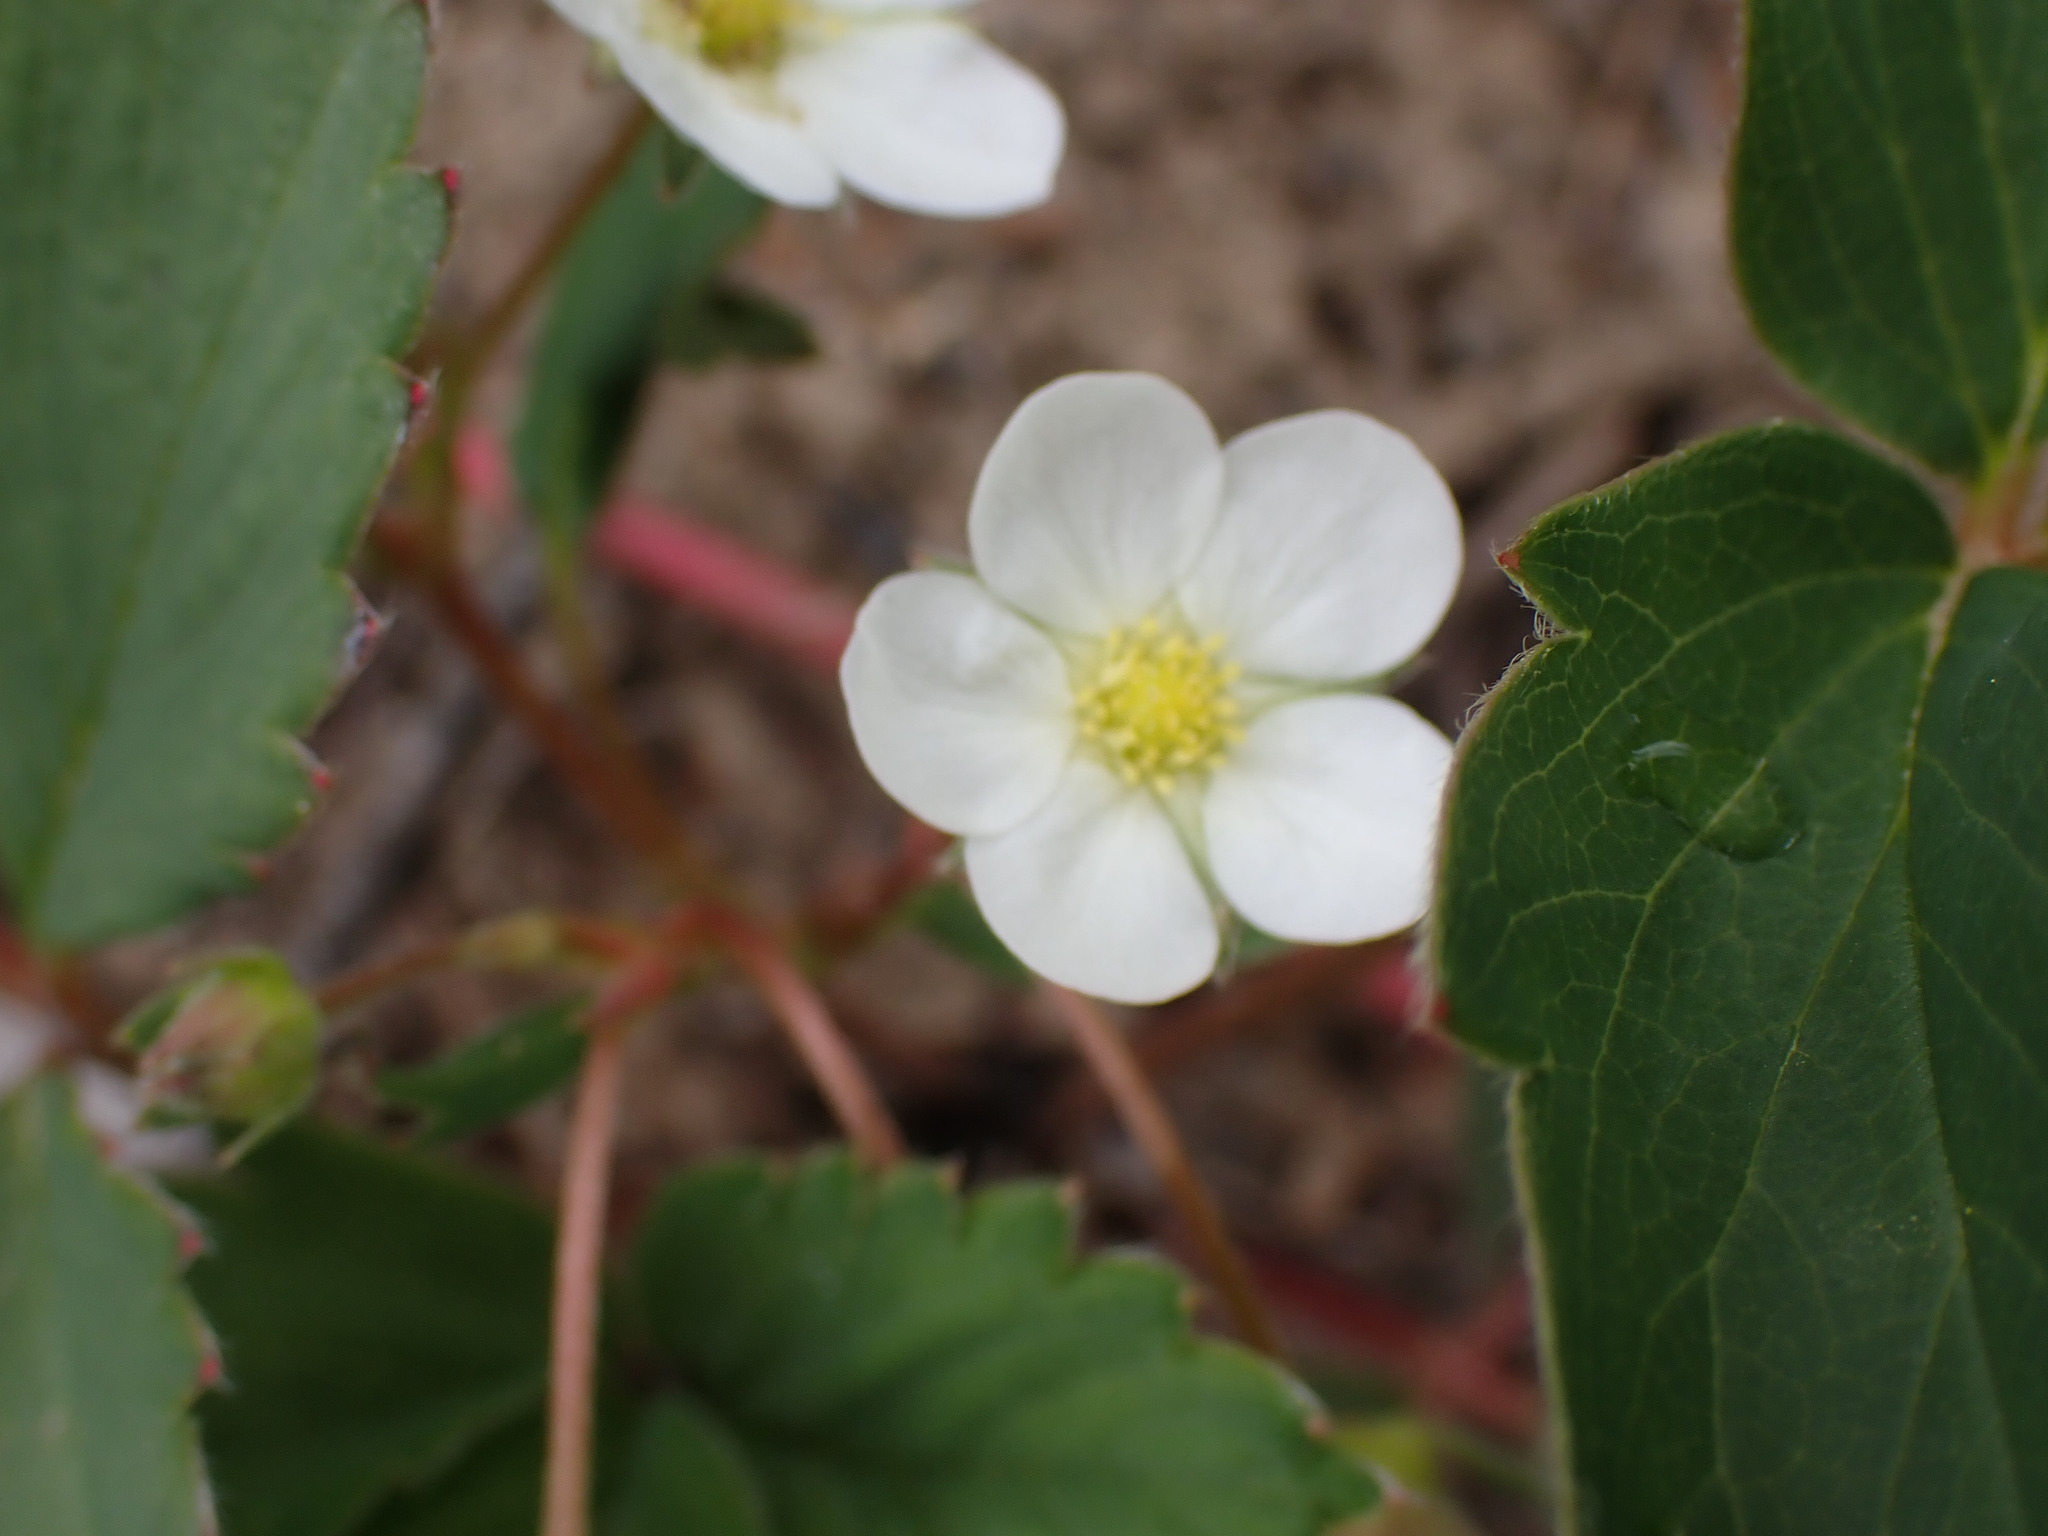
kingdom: Plantae
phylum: Tracheophyta
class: Magnoliopsida
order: Rosales
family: Rosaceae
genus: Fragaria
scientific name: Fragaria virginiana
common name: Thickleaved wild strawberry
